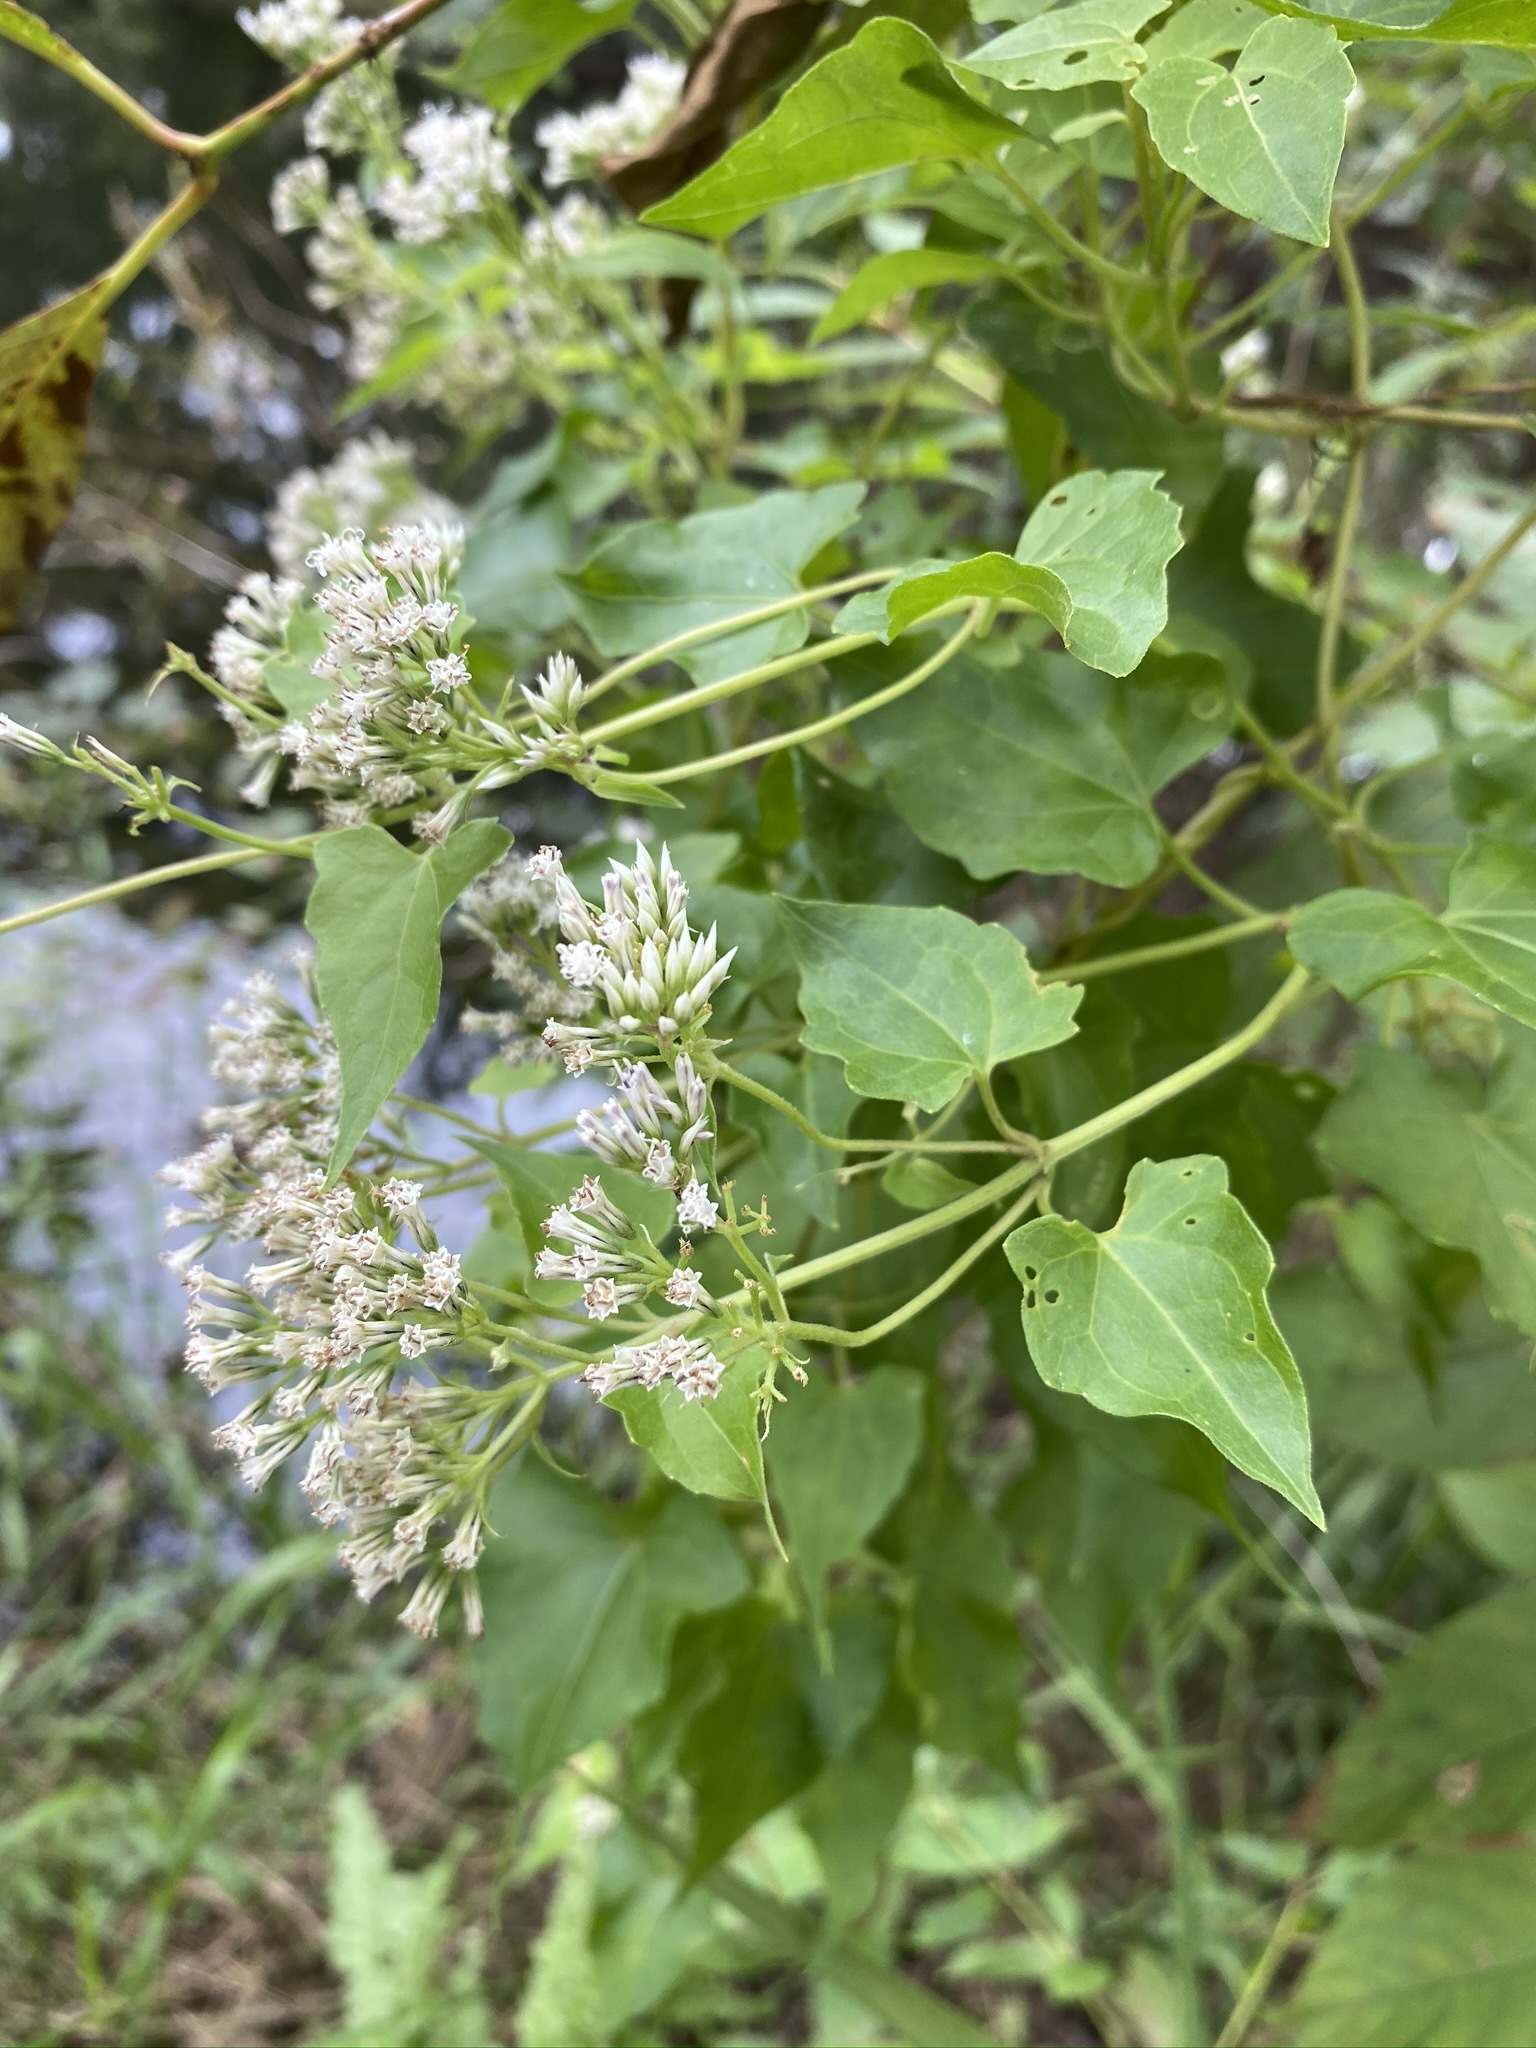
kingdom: Plantae
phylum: Tracheophyta
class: Magnoliopsida
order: Asterales
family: Asteraceae
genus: Mikania
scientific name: Mikania scandens
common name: Climbing hempvine
